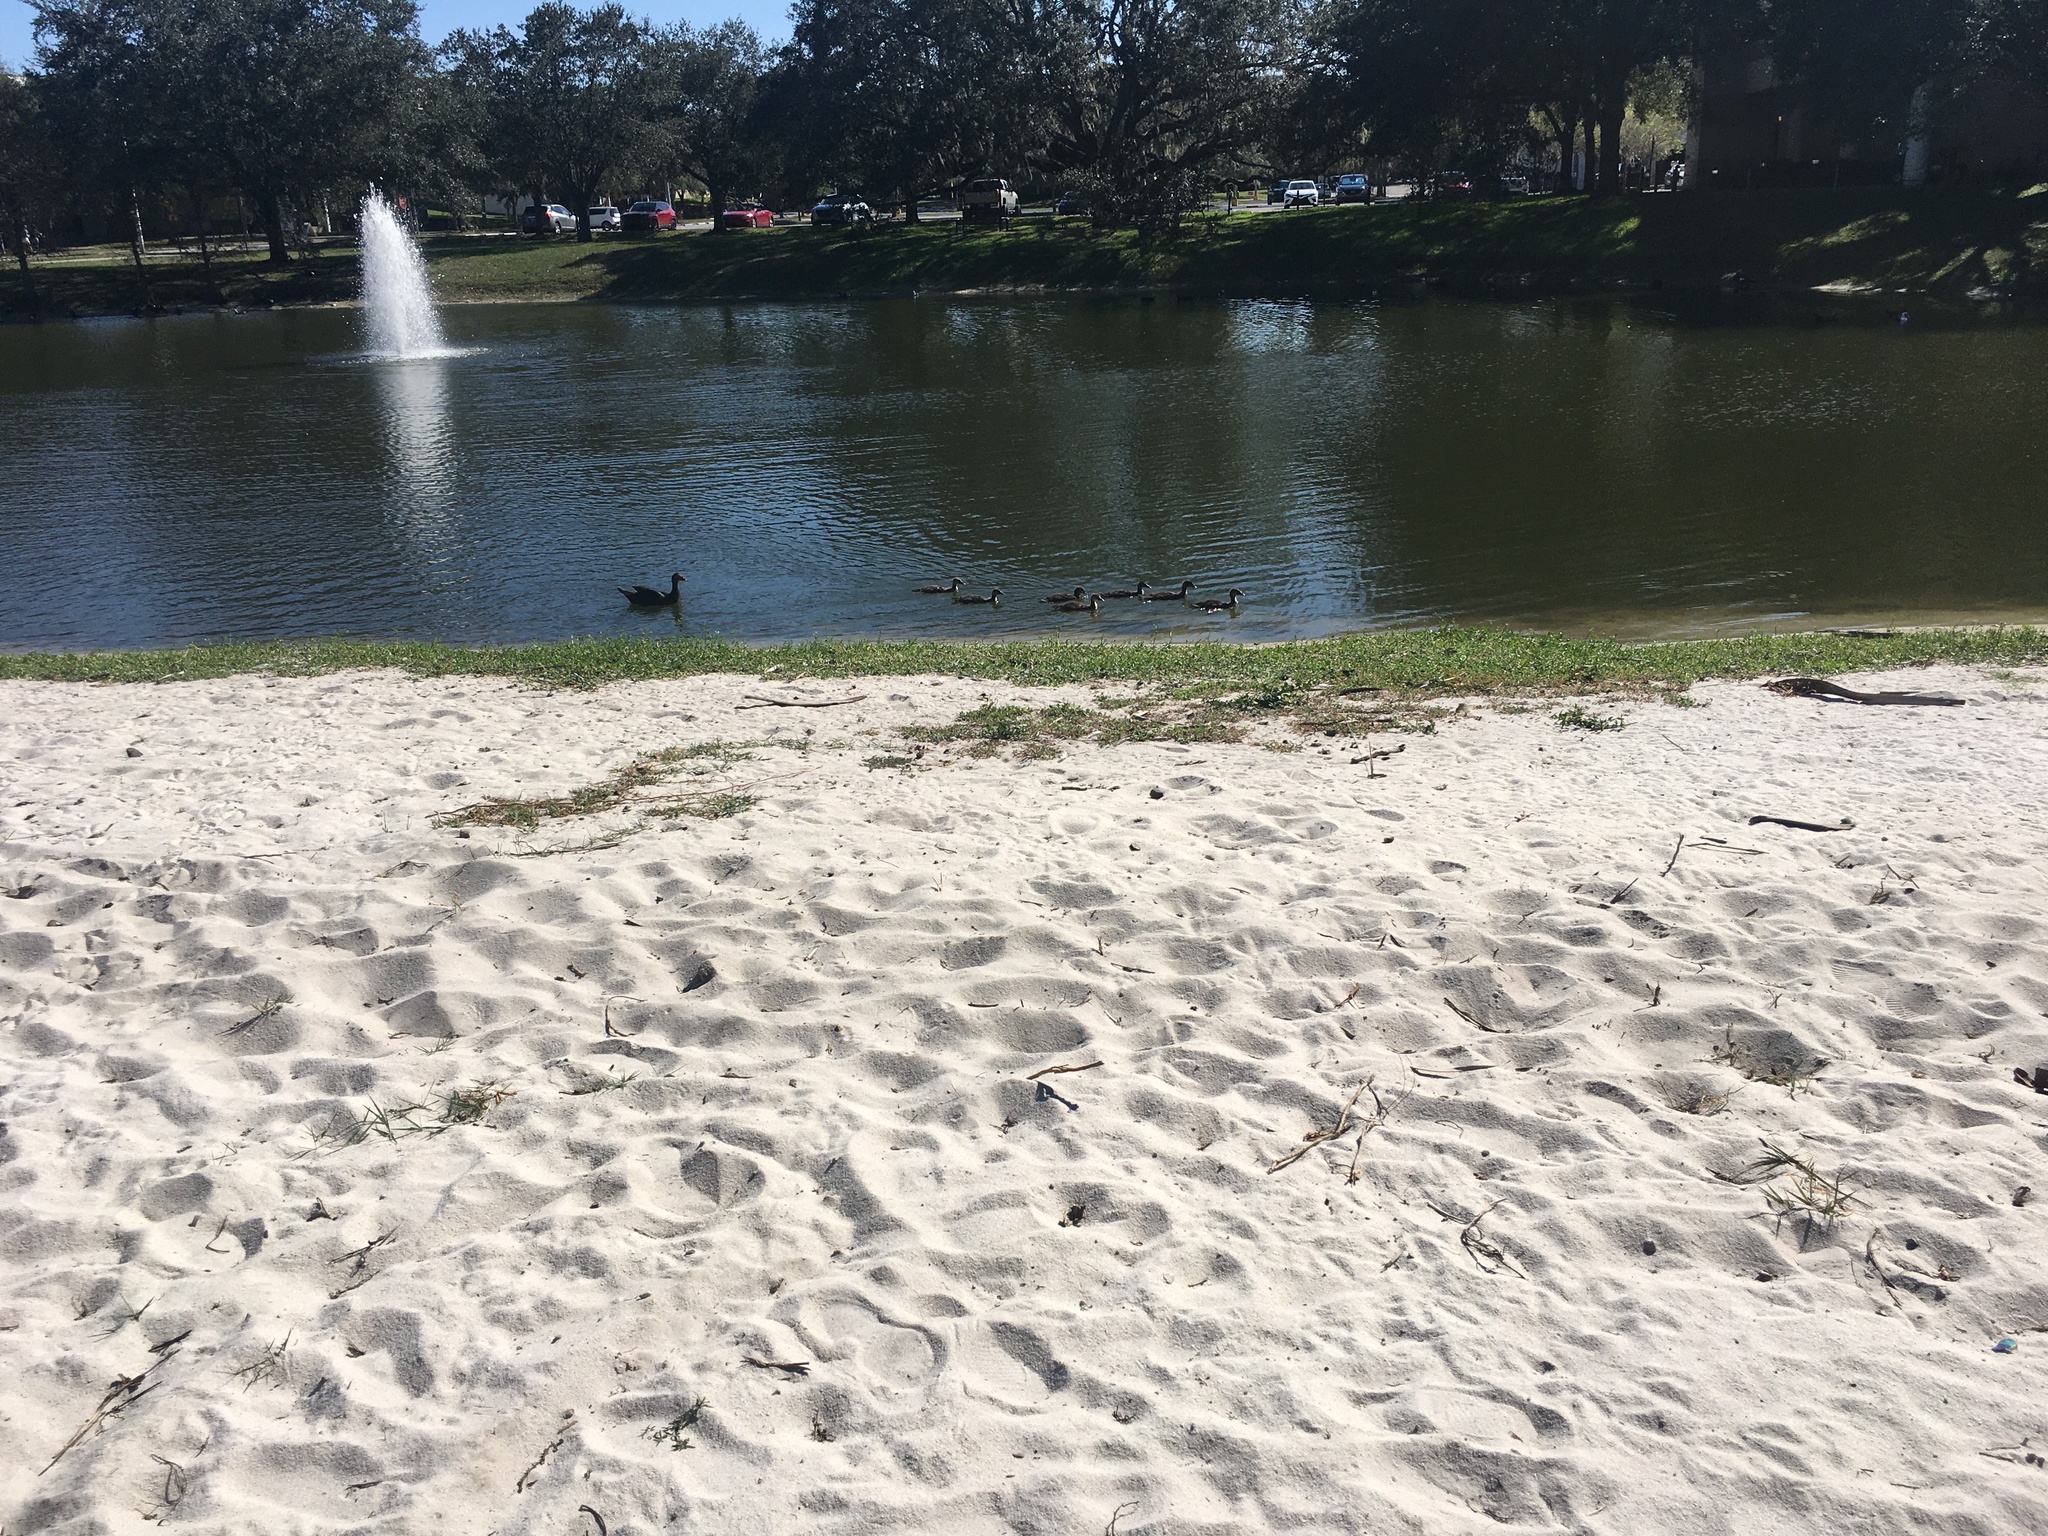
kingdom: Animalia
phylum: Chordata
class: Aves
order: Anseriformes
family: Anatidae
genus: Cairina
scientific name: Cairina moschata
